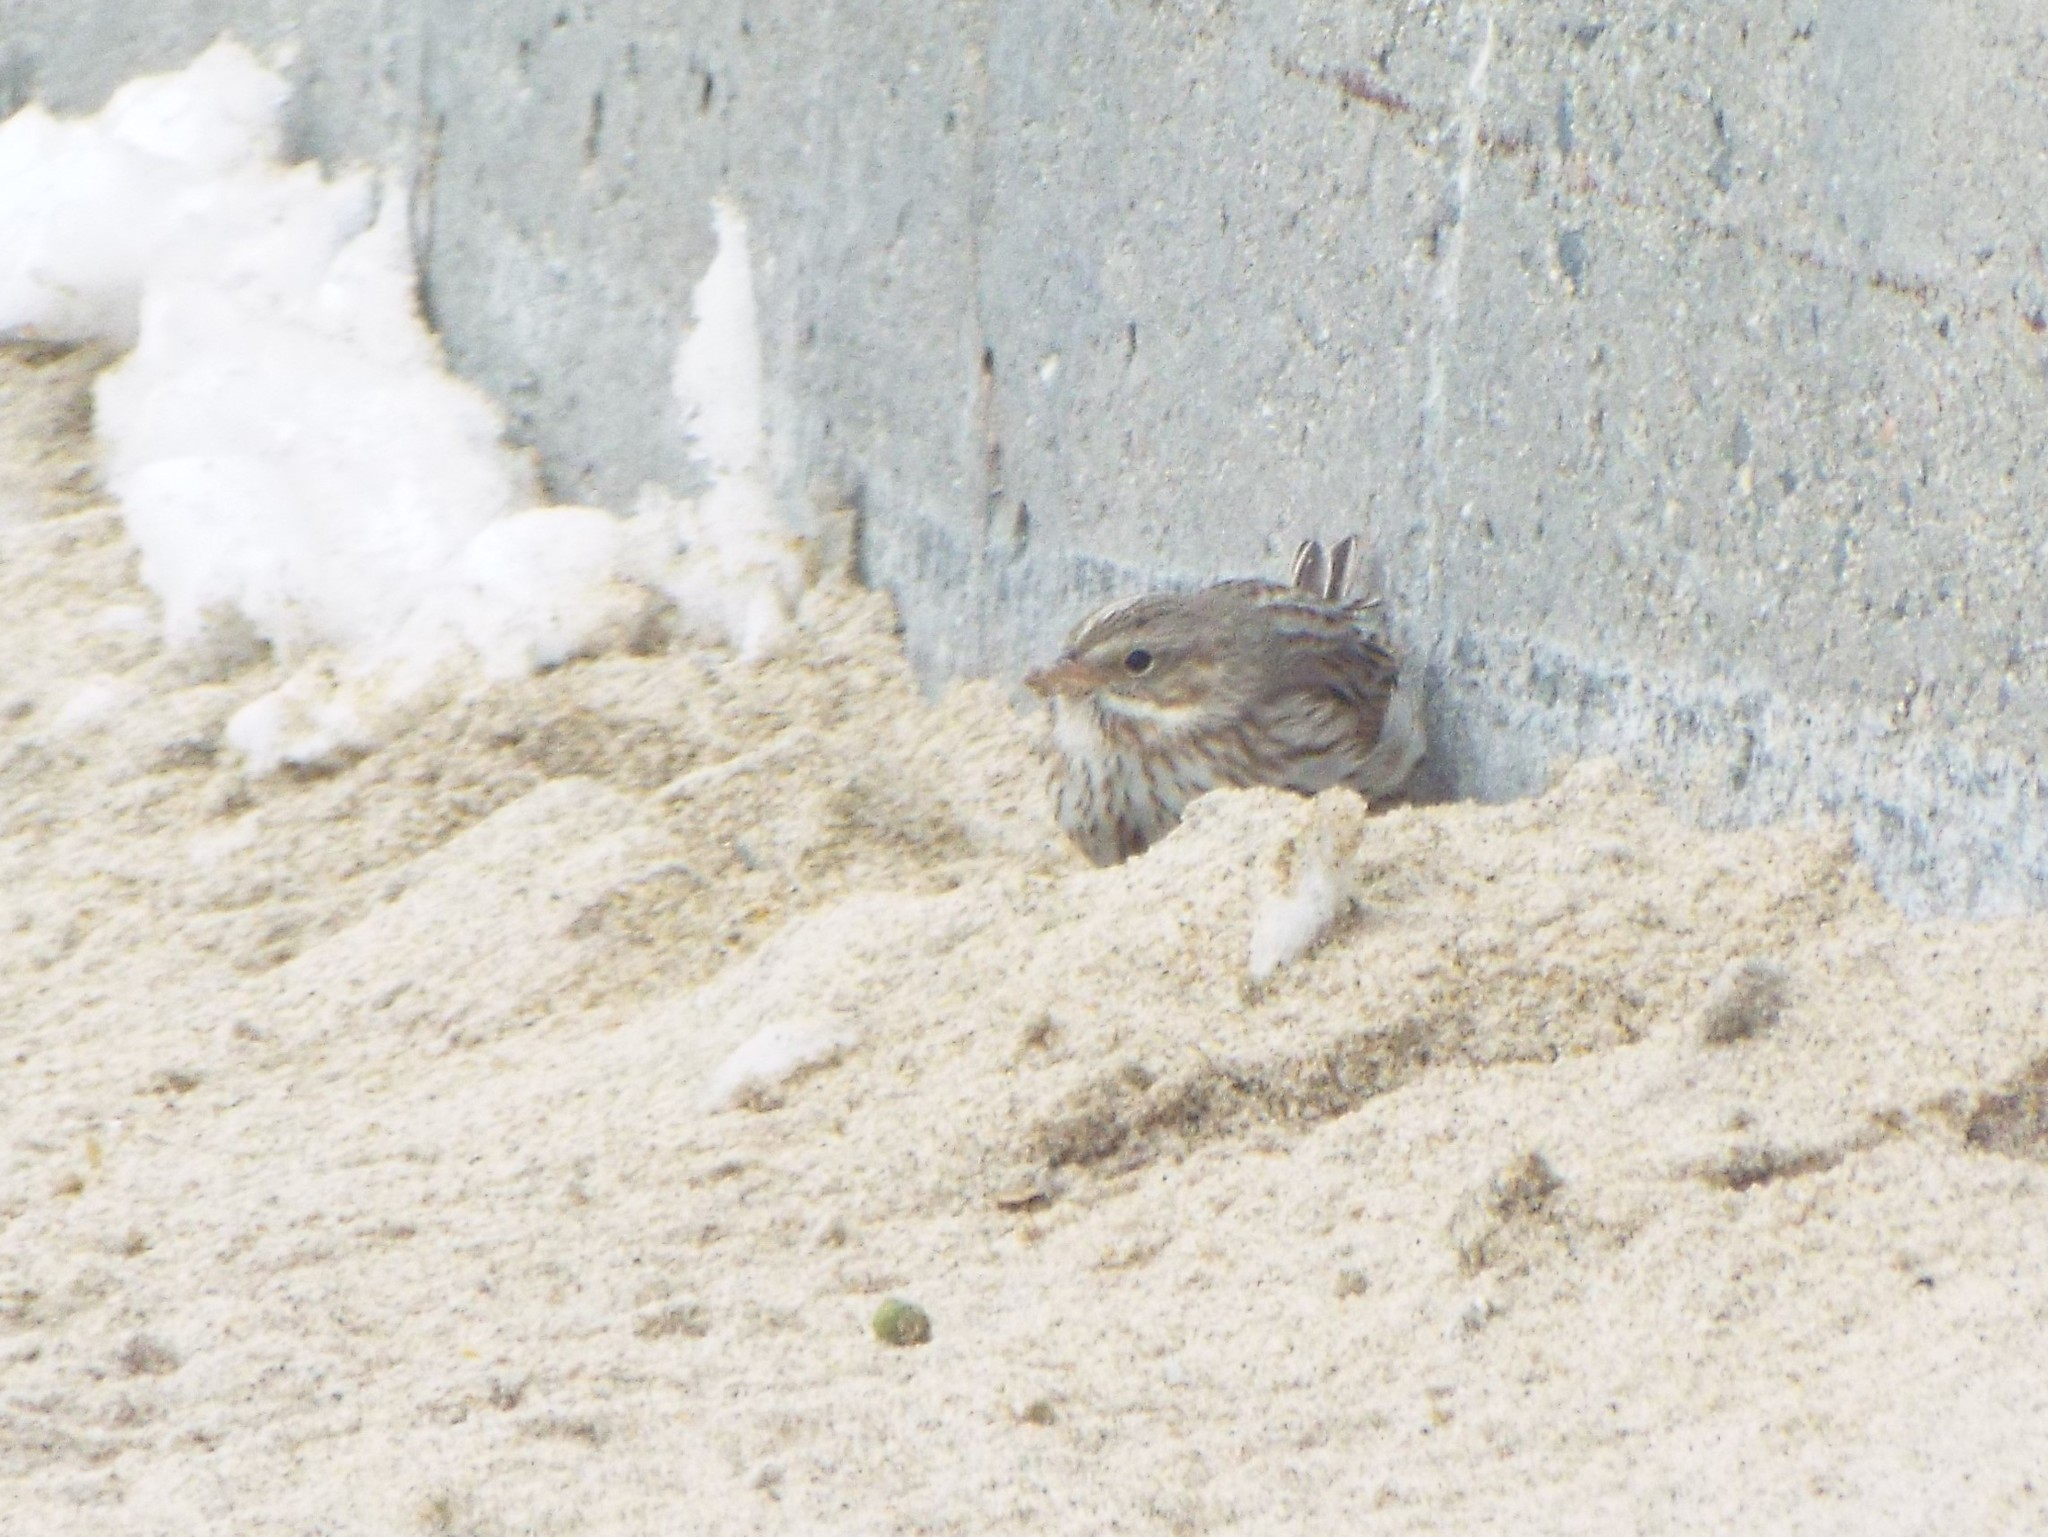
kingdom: Animalia
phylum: Chordata
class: Aves
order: Passeriformes
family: Passerellidae
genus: Passerculus
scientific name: Passerculus sandwichensis
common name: Savannah sparrow
